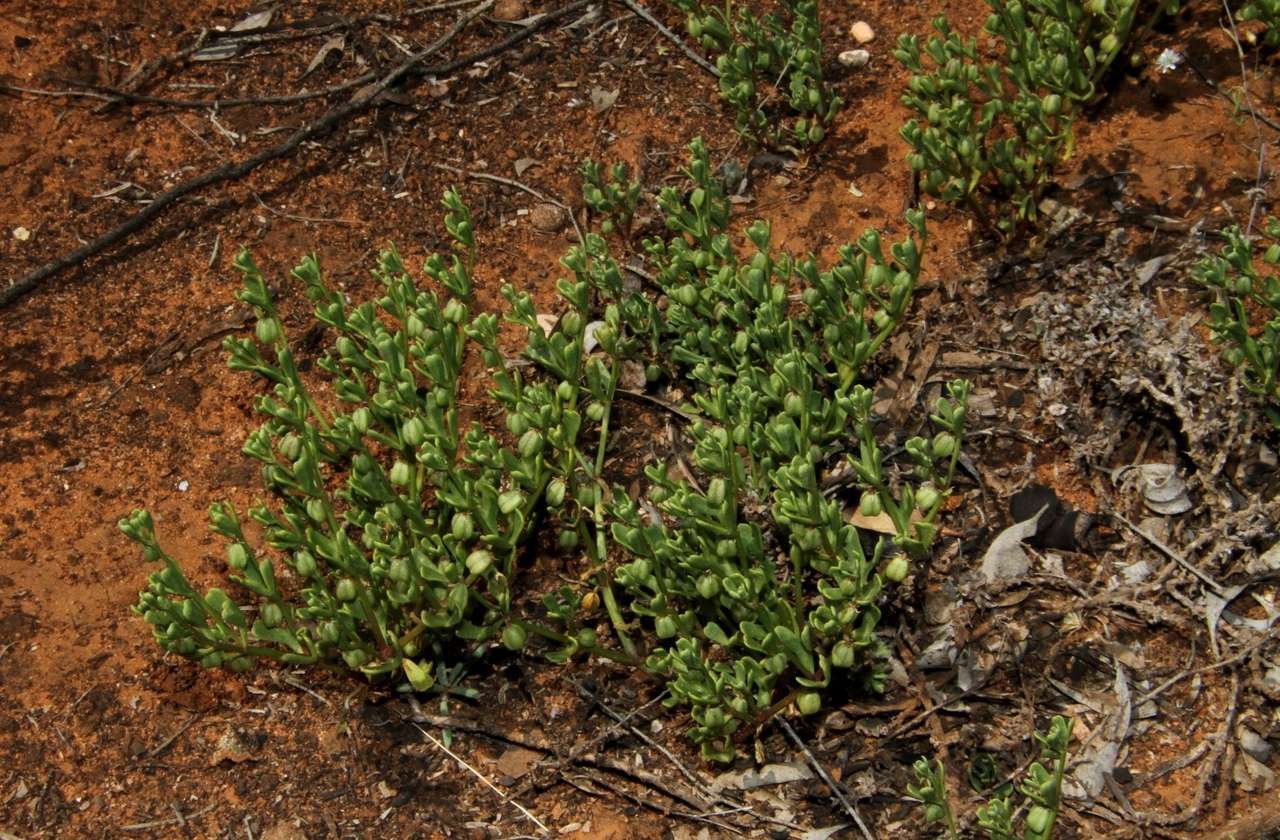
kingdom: Plantae
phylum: Tracheophyta
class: Magnoliopsida
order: Zygophyllales
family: Zygophyllaceae
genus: Roepera
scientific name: Roepera ovata
